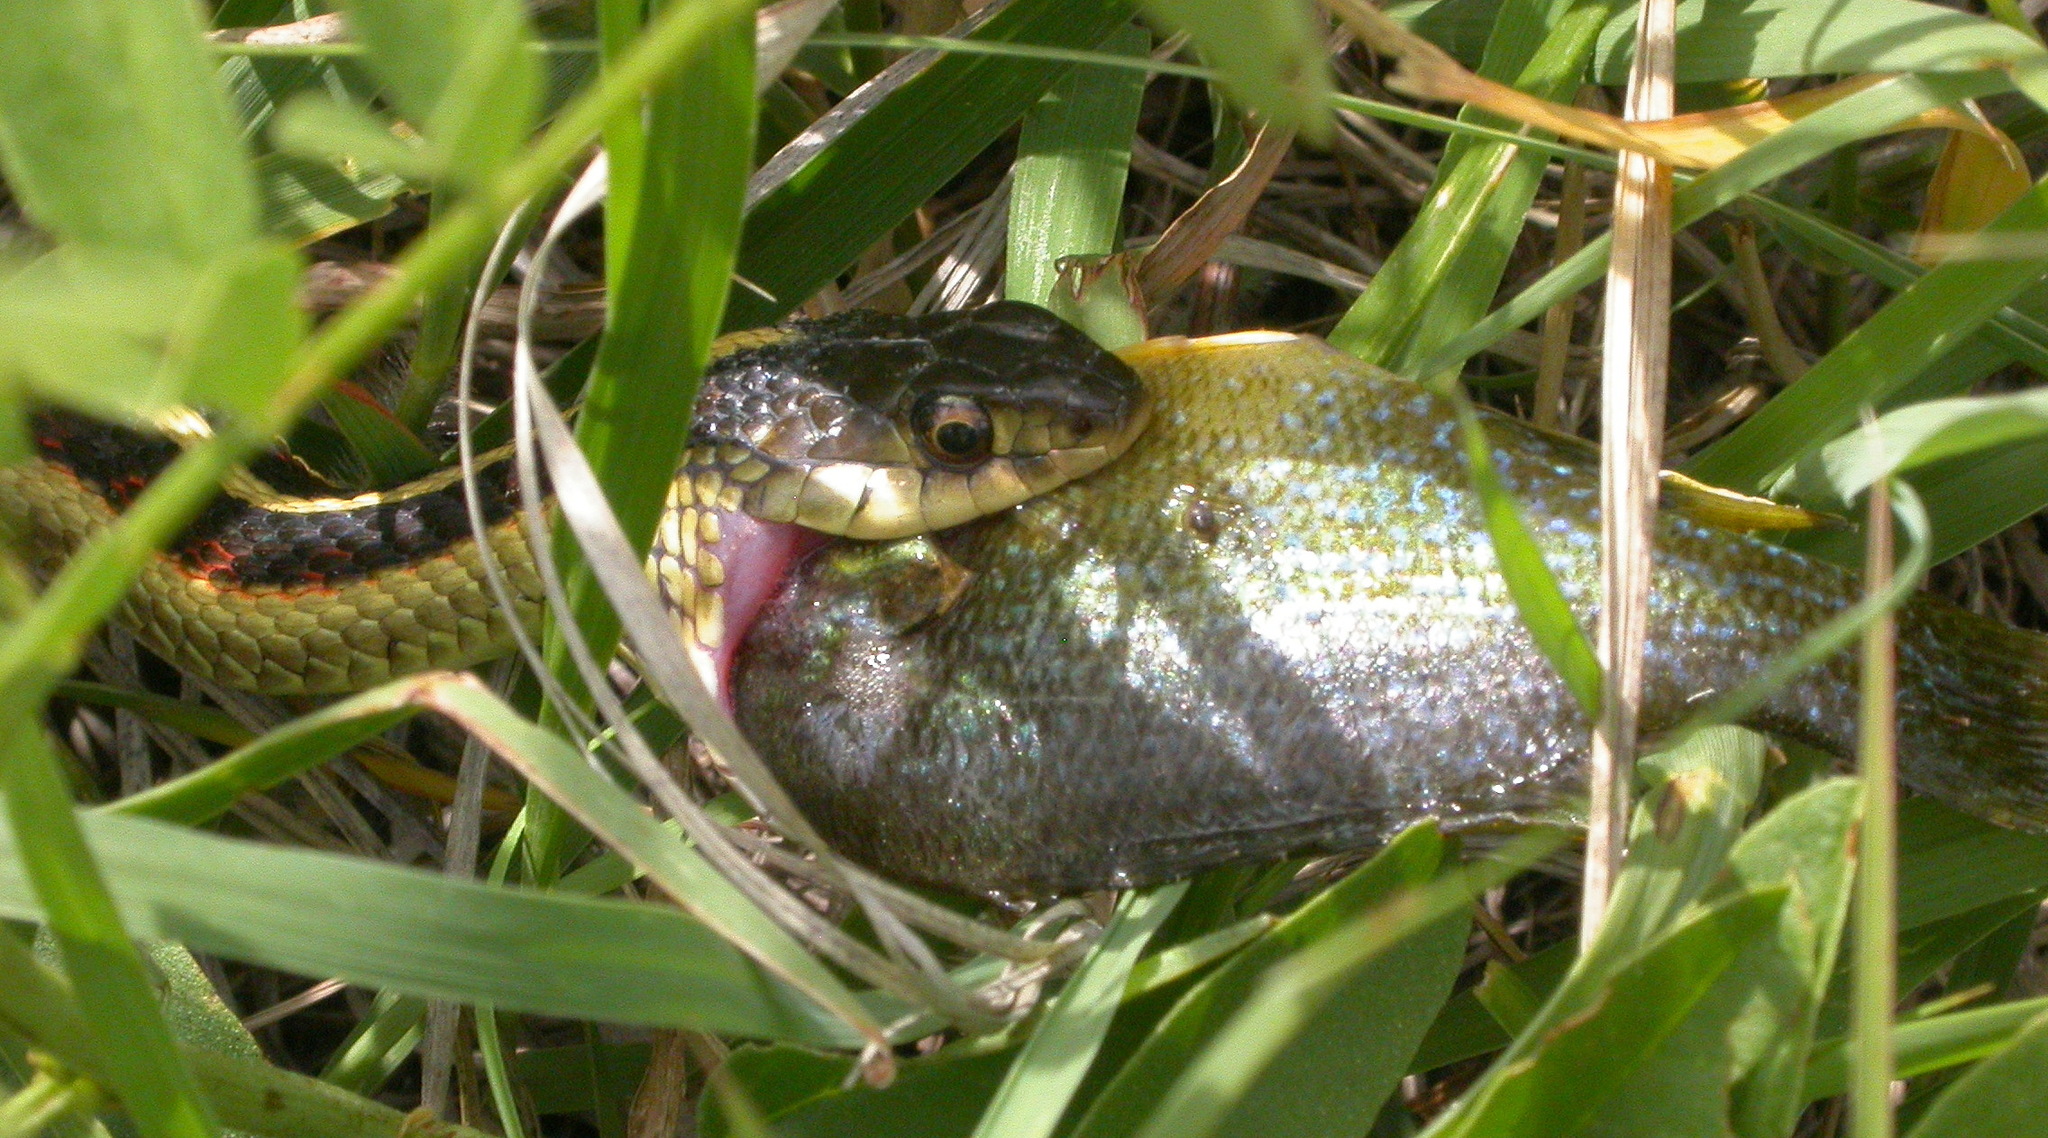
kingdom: Animalia
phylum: Chordata
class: Squamata
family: Colubridae
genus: Thamnophis
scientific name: Thamnophis sirtalis
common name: Common garter snake
